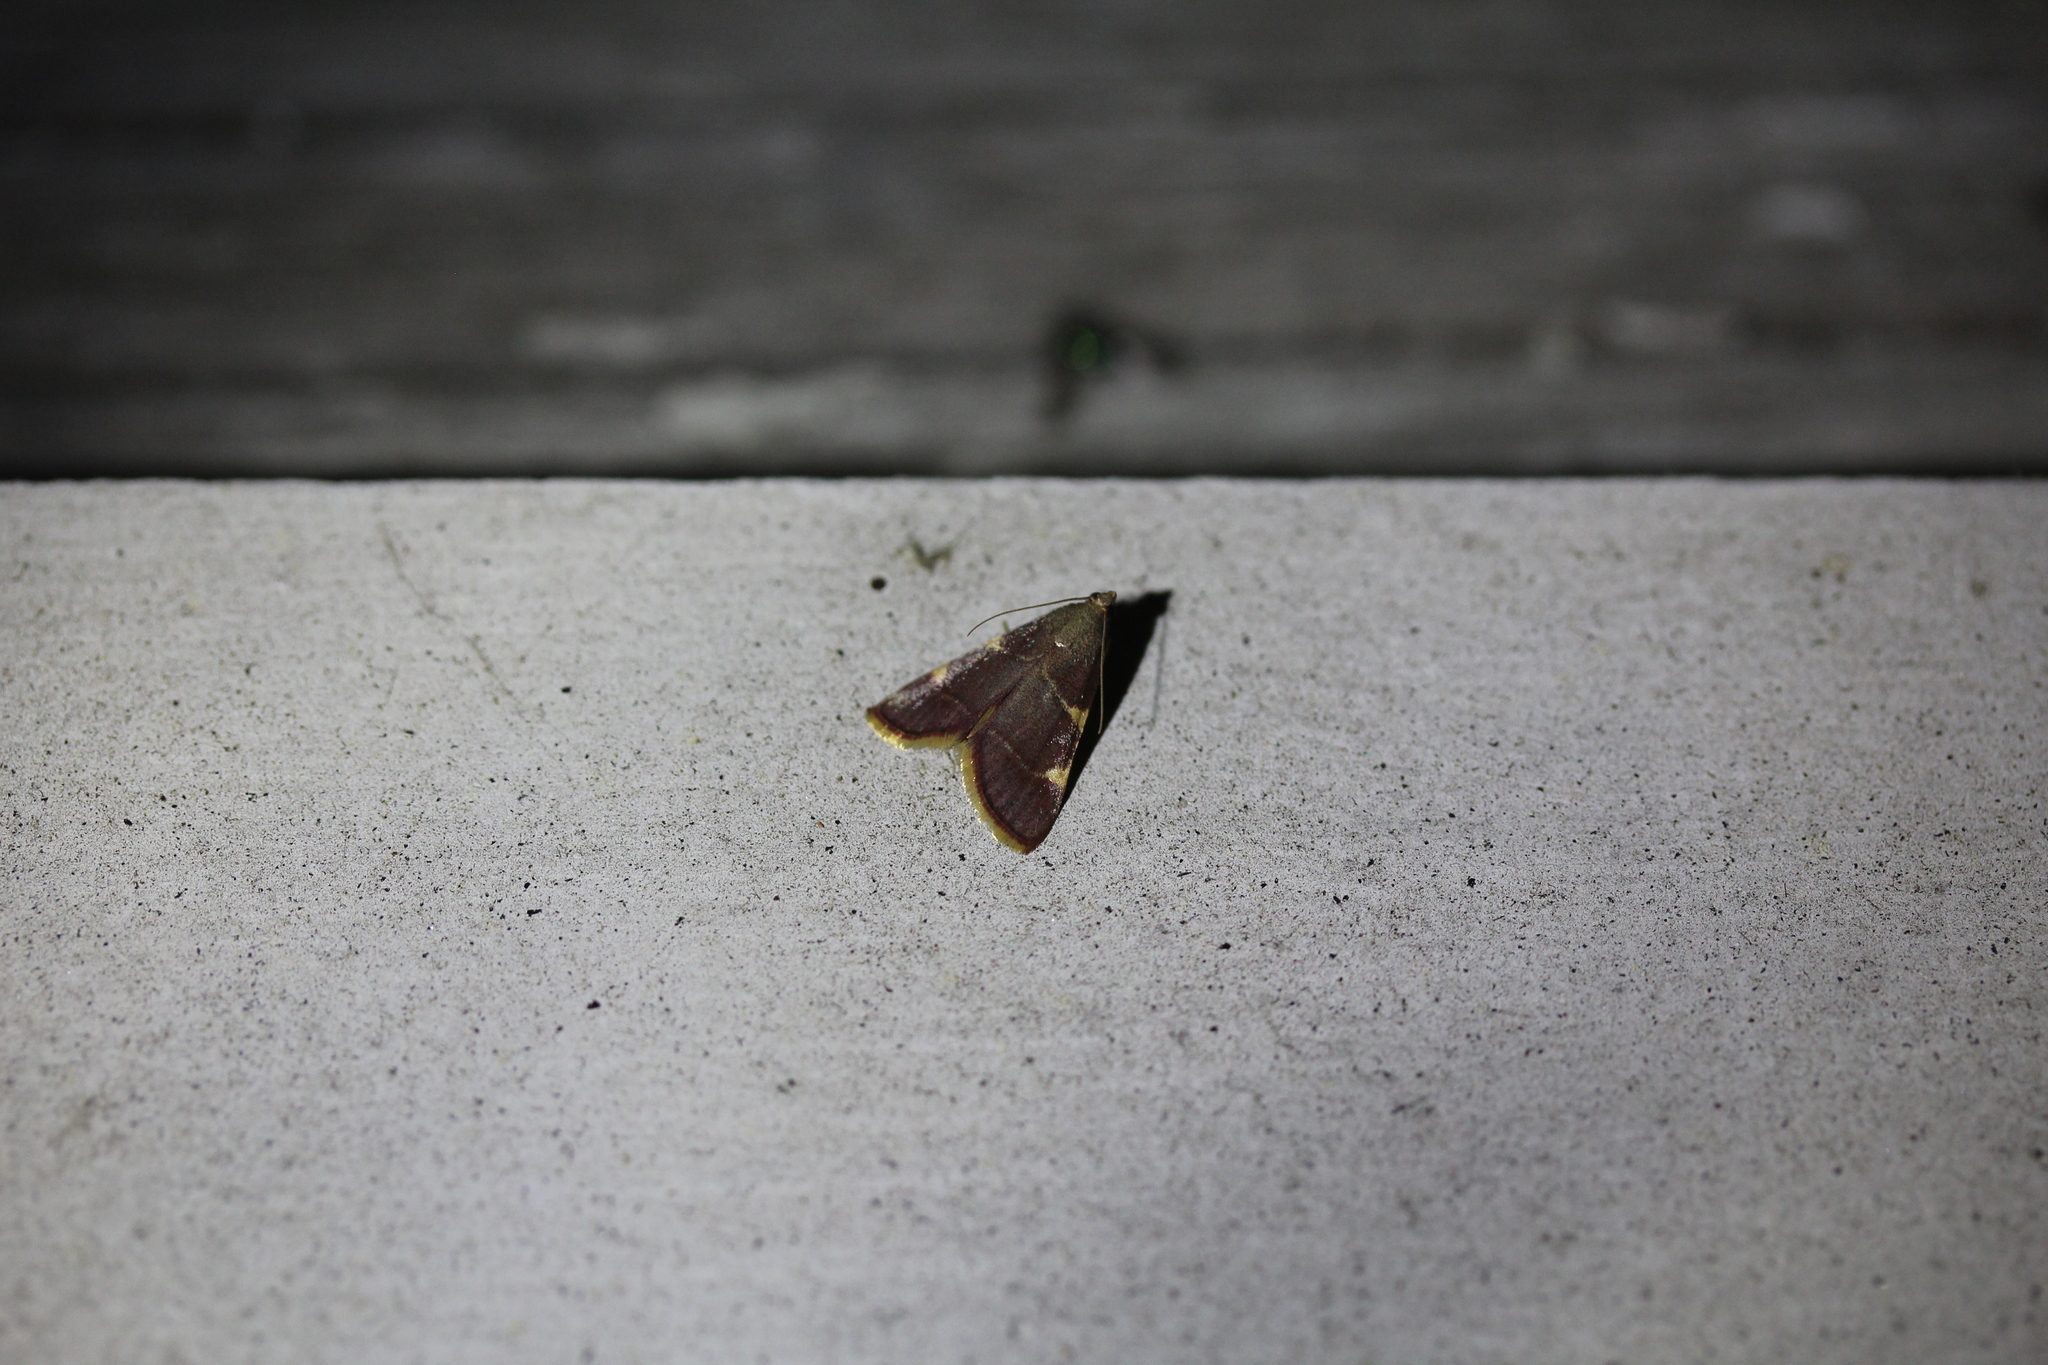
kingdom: Animalia
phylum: Arthropoda
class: Insecta
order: Lepidoptera
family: Pyralidae
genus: Hypsopygia
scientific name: Hypsopygia olinalis
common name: Yellow-fringed dolichomia moth
